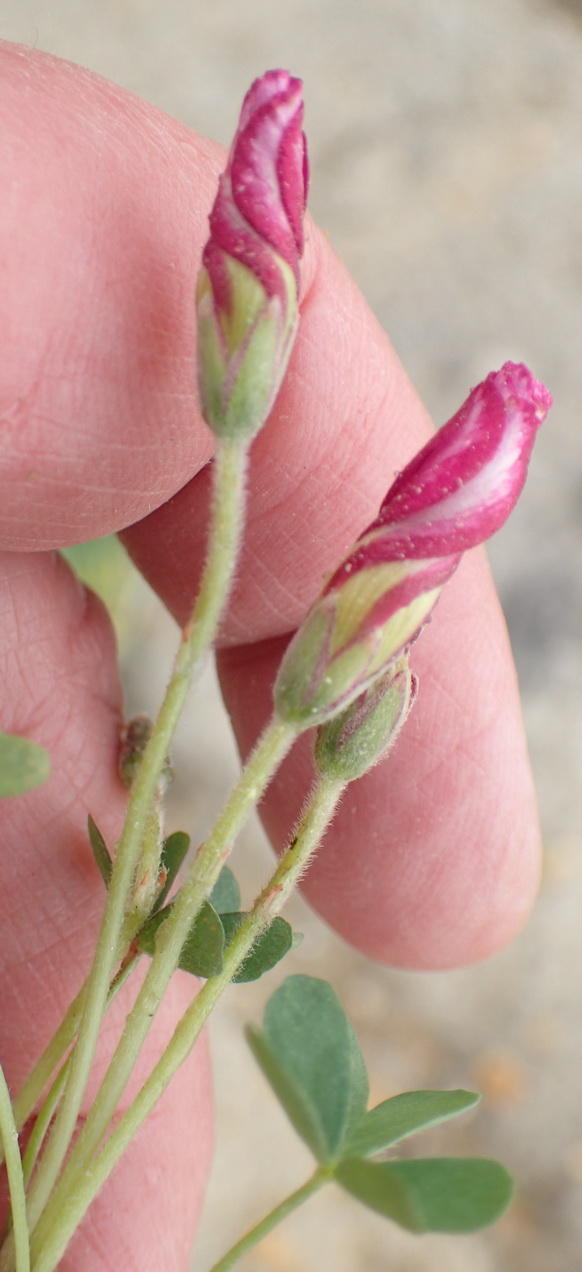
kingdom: Plantae
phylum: Tracheophyta
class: Magnoliopsida
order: Oxalidales
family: Oxalidaceae
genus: Oxalis
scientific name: Oxalis heterophylla
